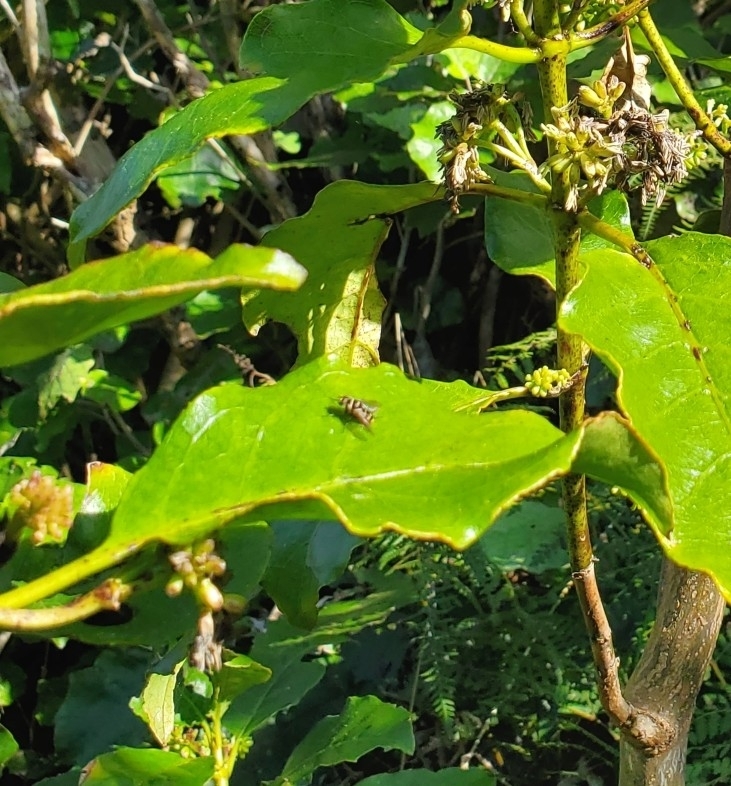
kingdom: Animalia
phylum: Arthropoda
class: Insecta
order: Diptera
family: Tachinidae
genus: Trigonospila
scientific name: Trigonospila brevifacies
